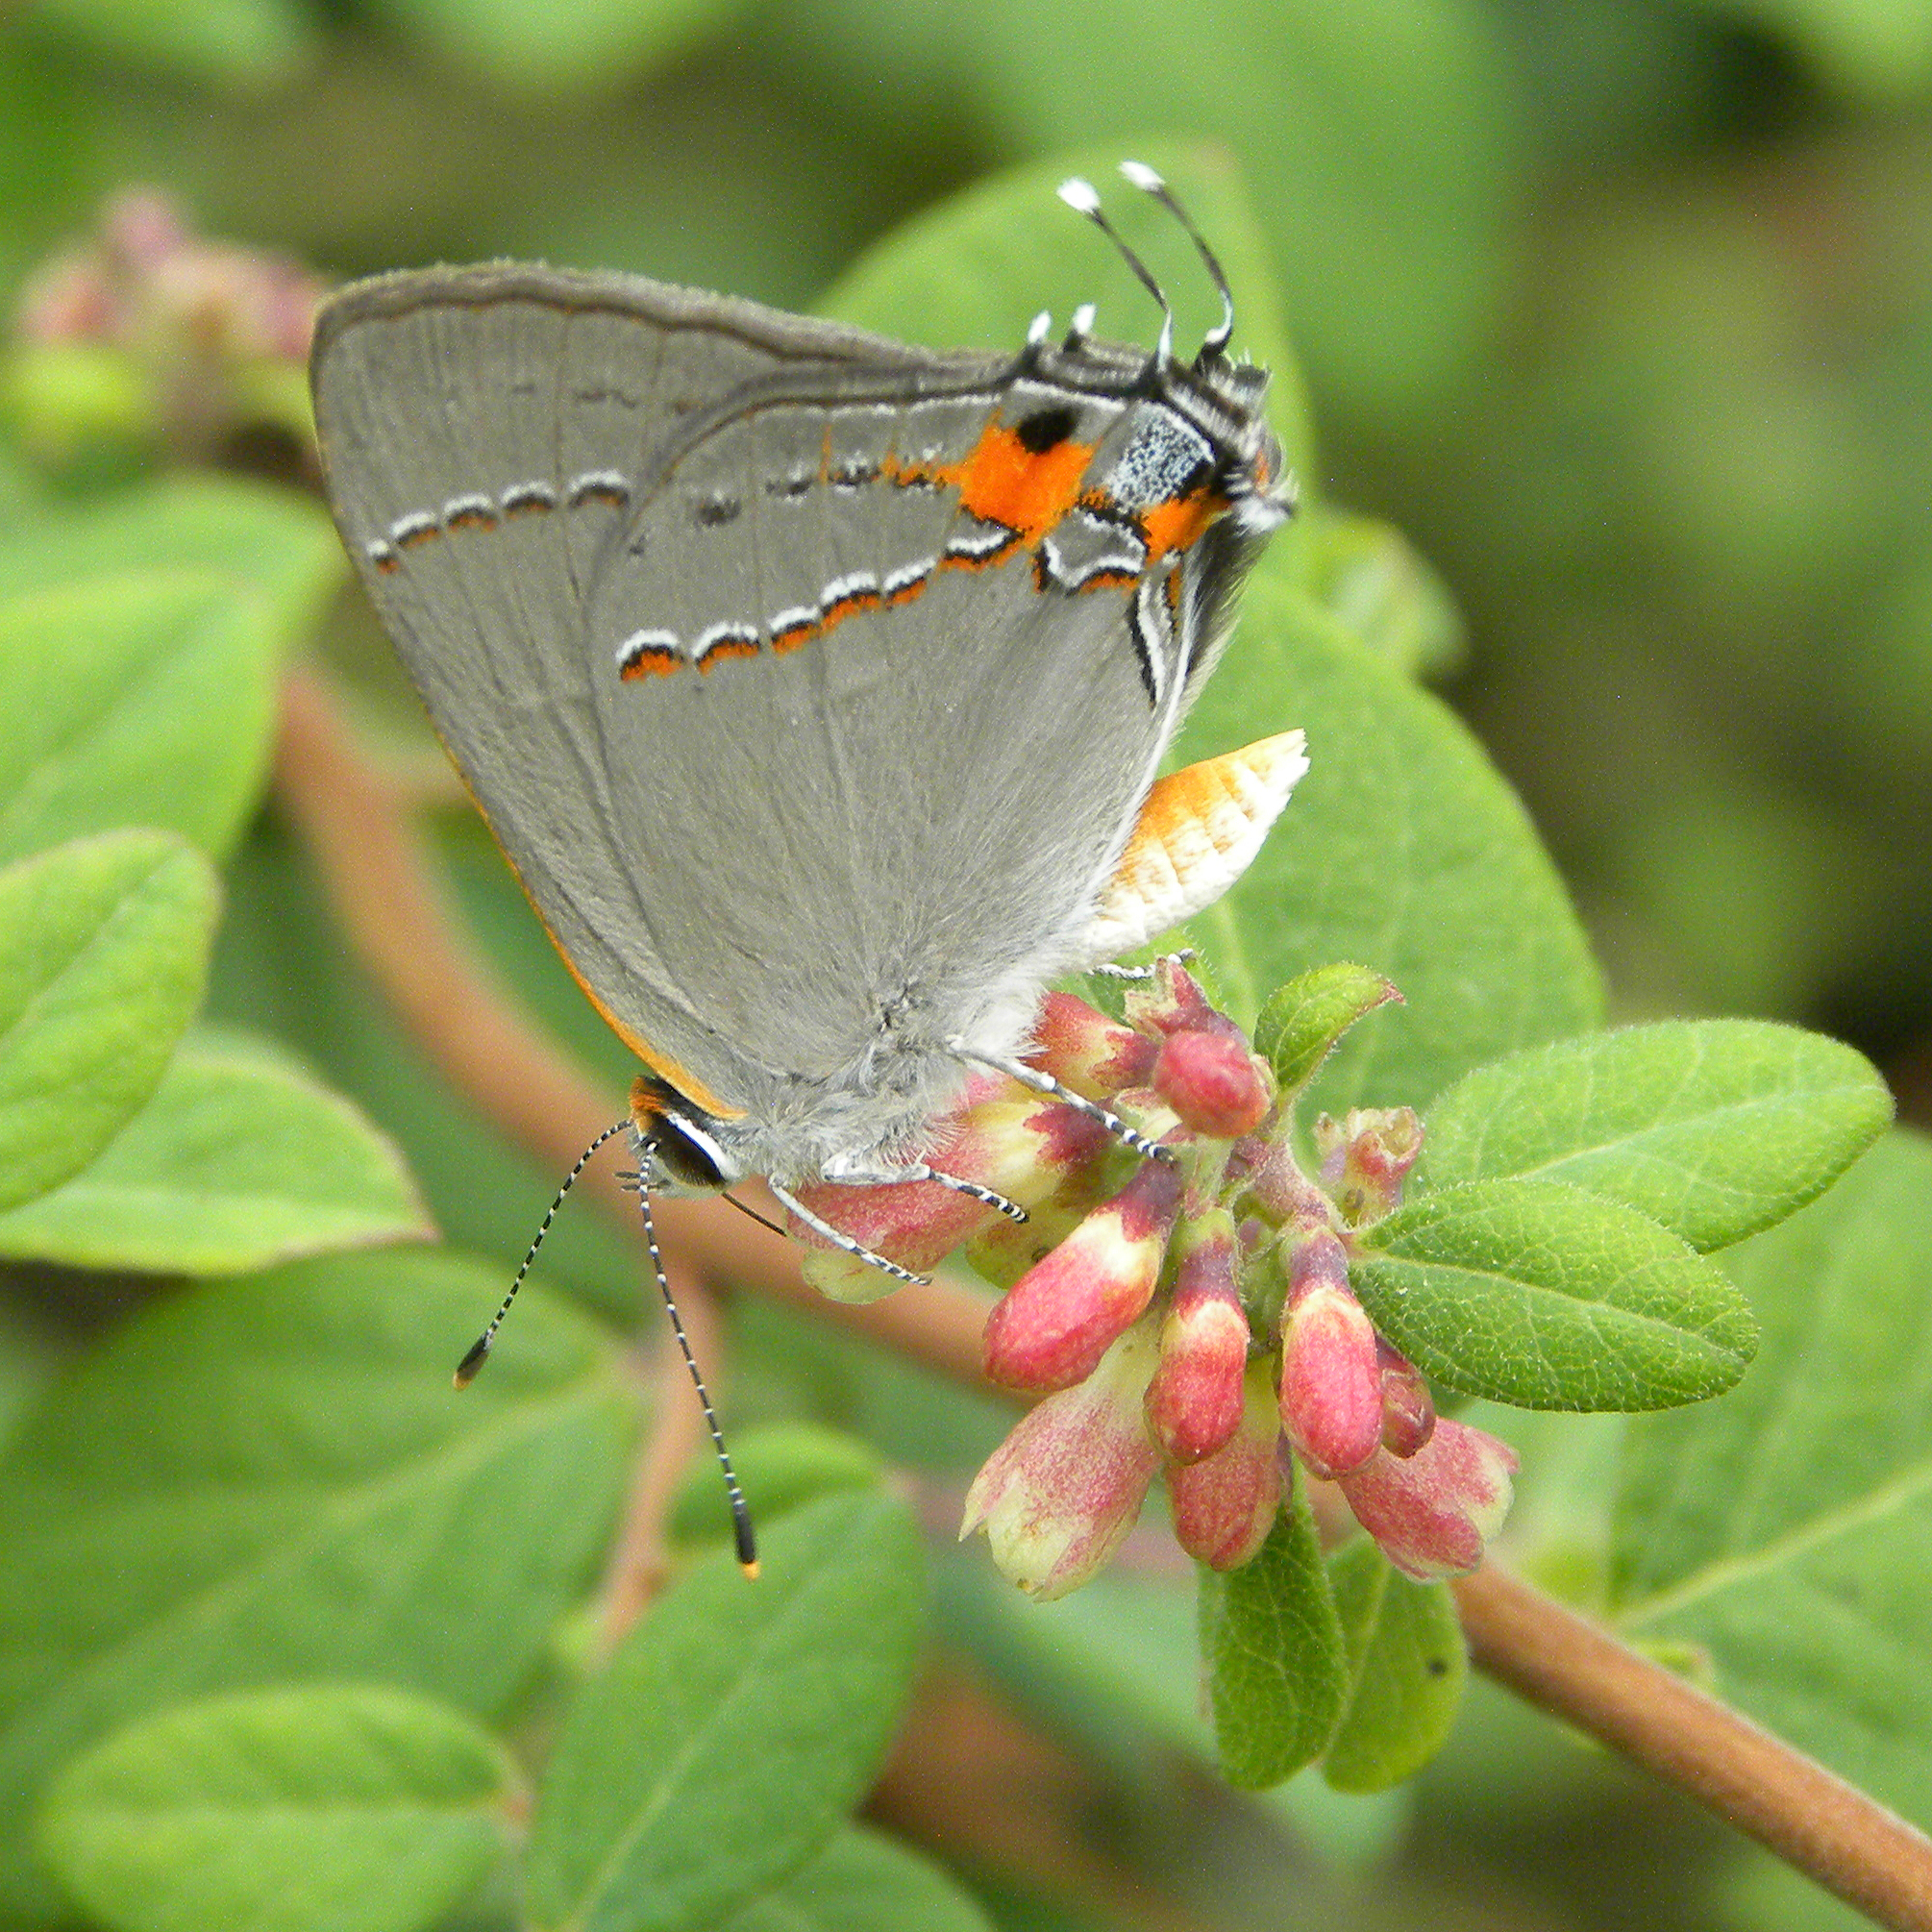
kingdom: Animalia
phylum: Arthropoda
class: Insecta
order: Lepidoptera
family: Lycaenidae
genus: Strymon
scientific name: Strymon melinus
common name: Gray hairstreak
